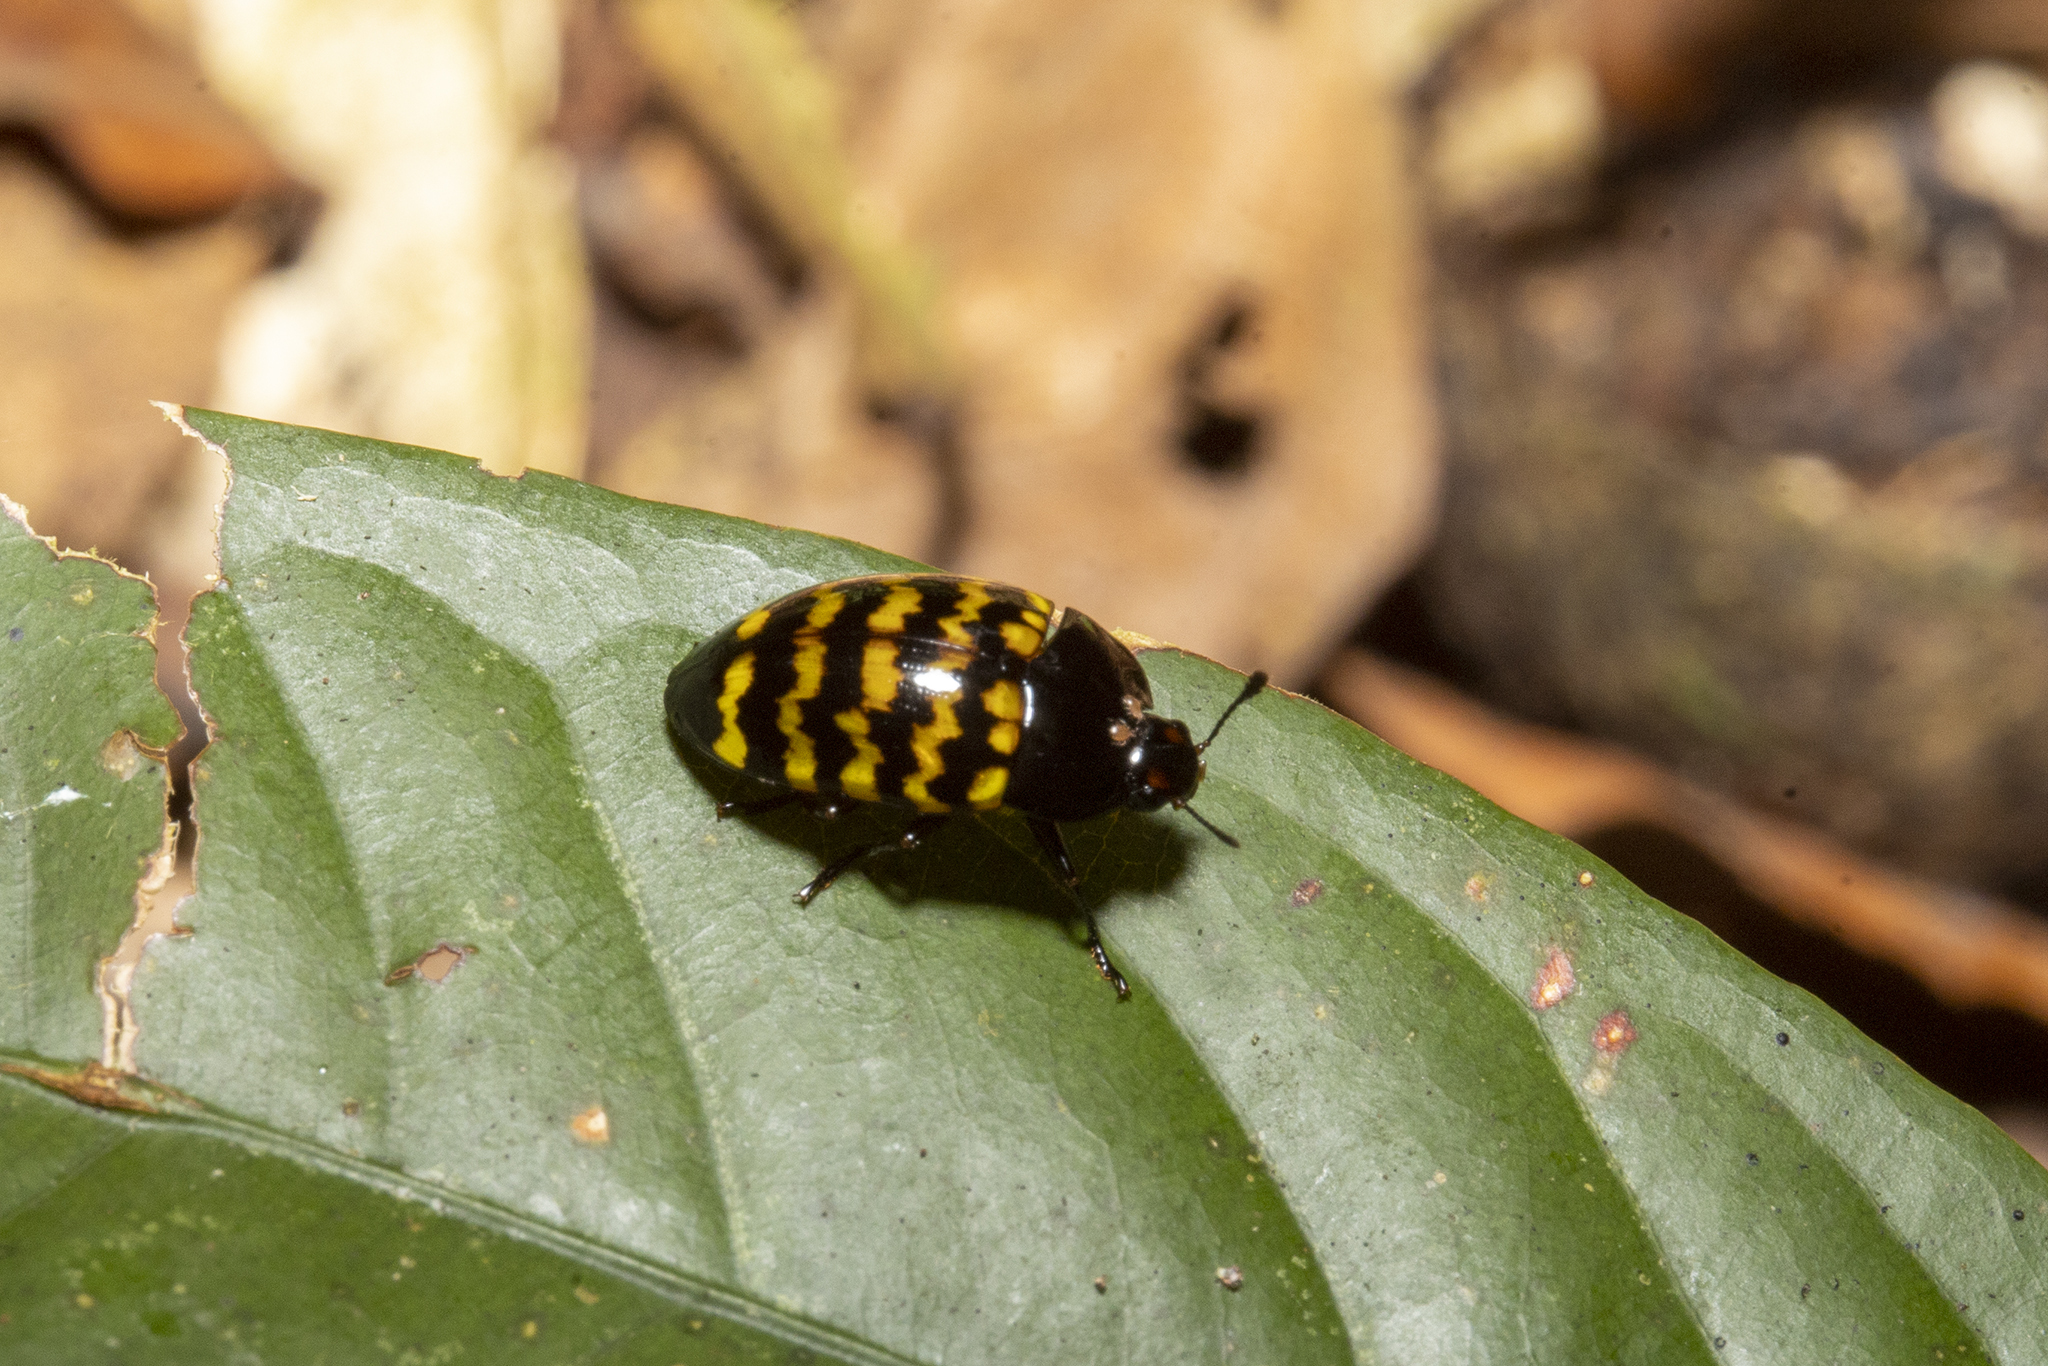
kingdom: Animalia
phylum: Arthropoda
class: Insecta
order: Coleoptera
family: Erotylidae
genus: Iphiclus
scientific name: Iphiclus
